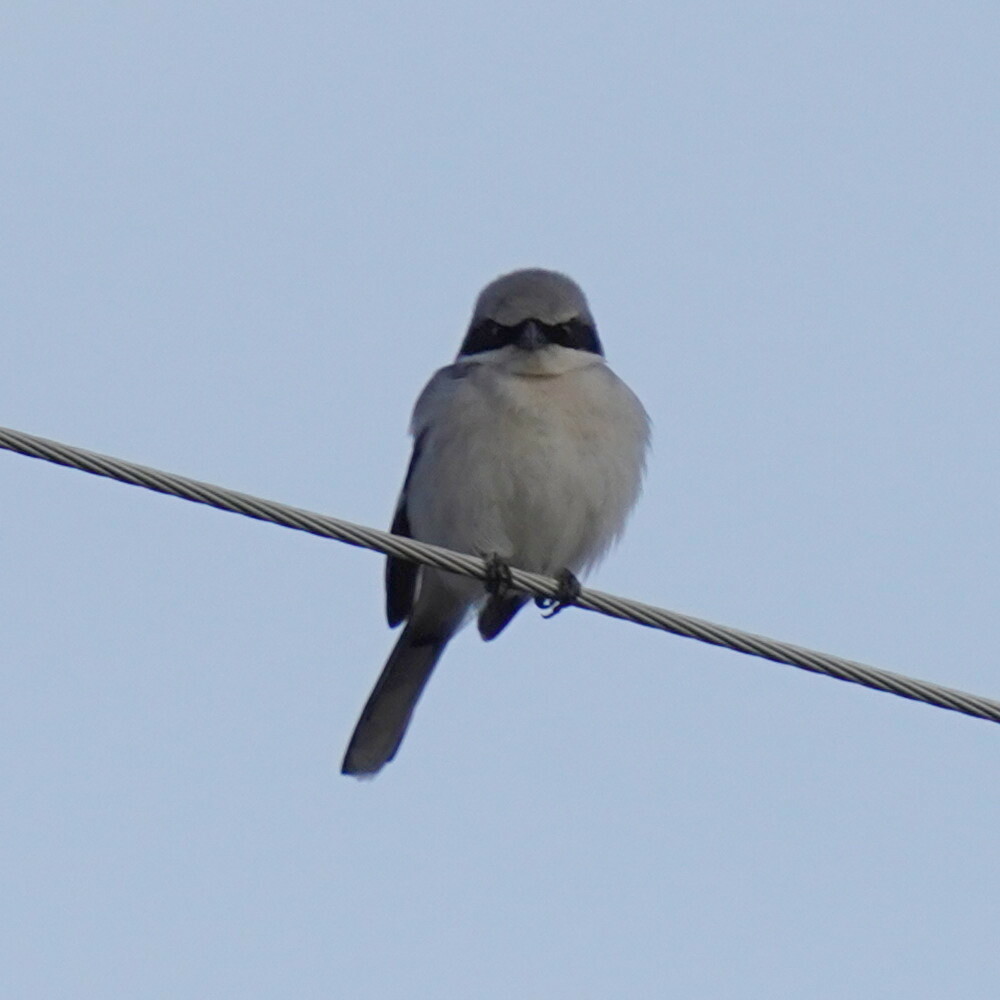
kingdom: Animalia
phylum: Chordata
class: Aves
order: Passeriformes
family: Laniidae
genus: Lanius
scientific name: Lanius ludovicianus
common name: Loggerhead shrike
